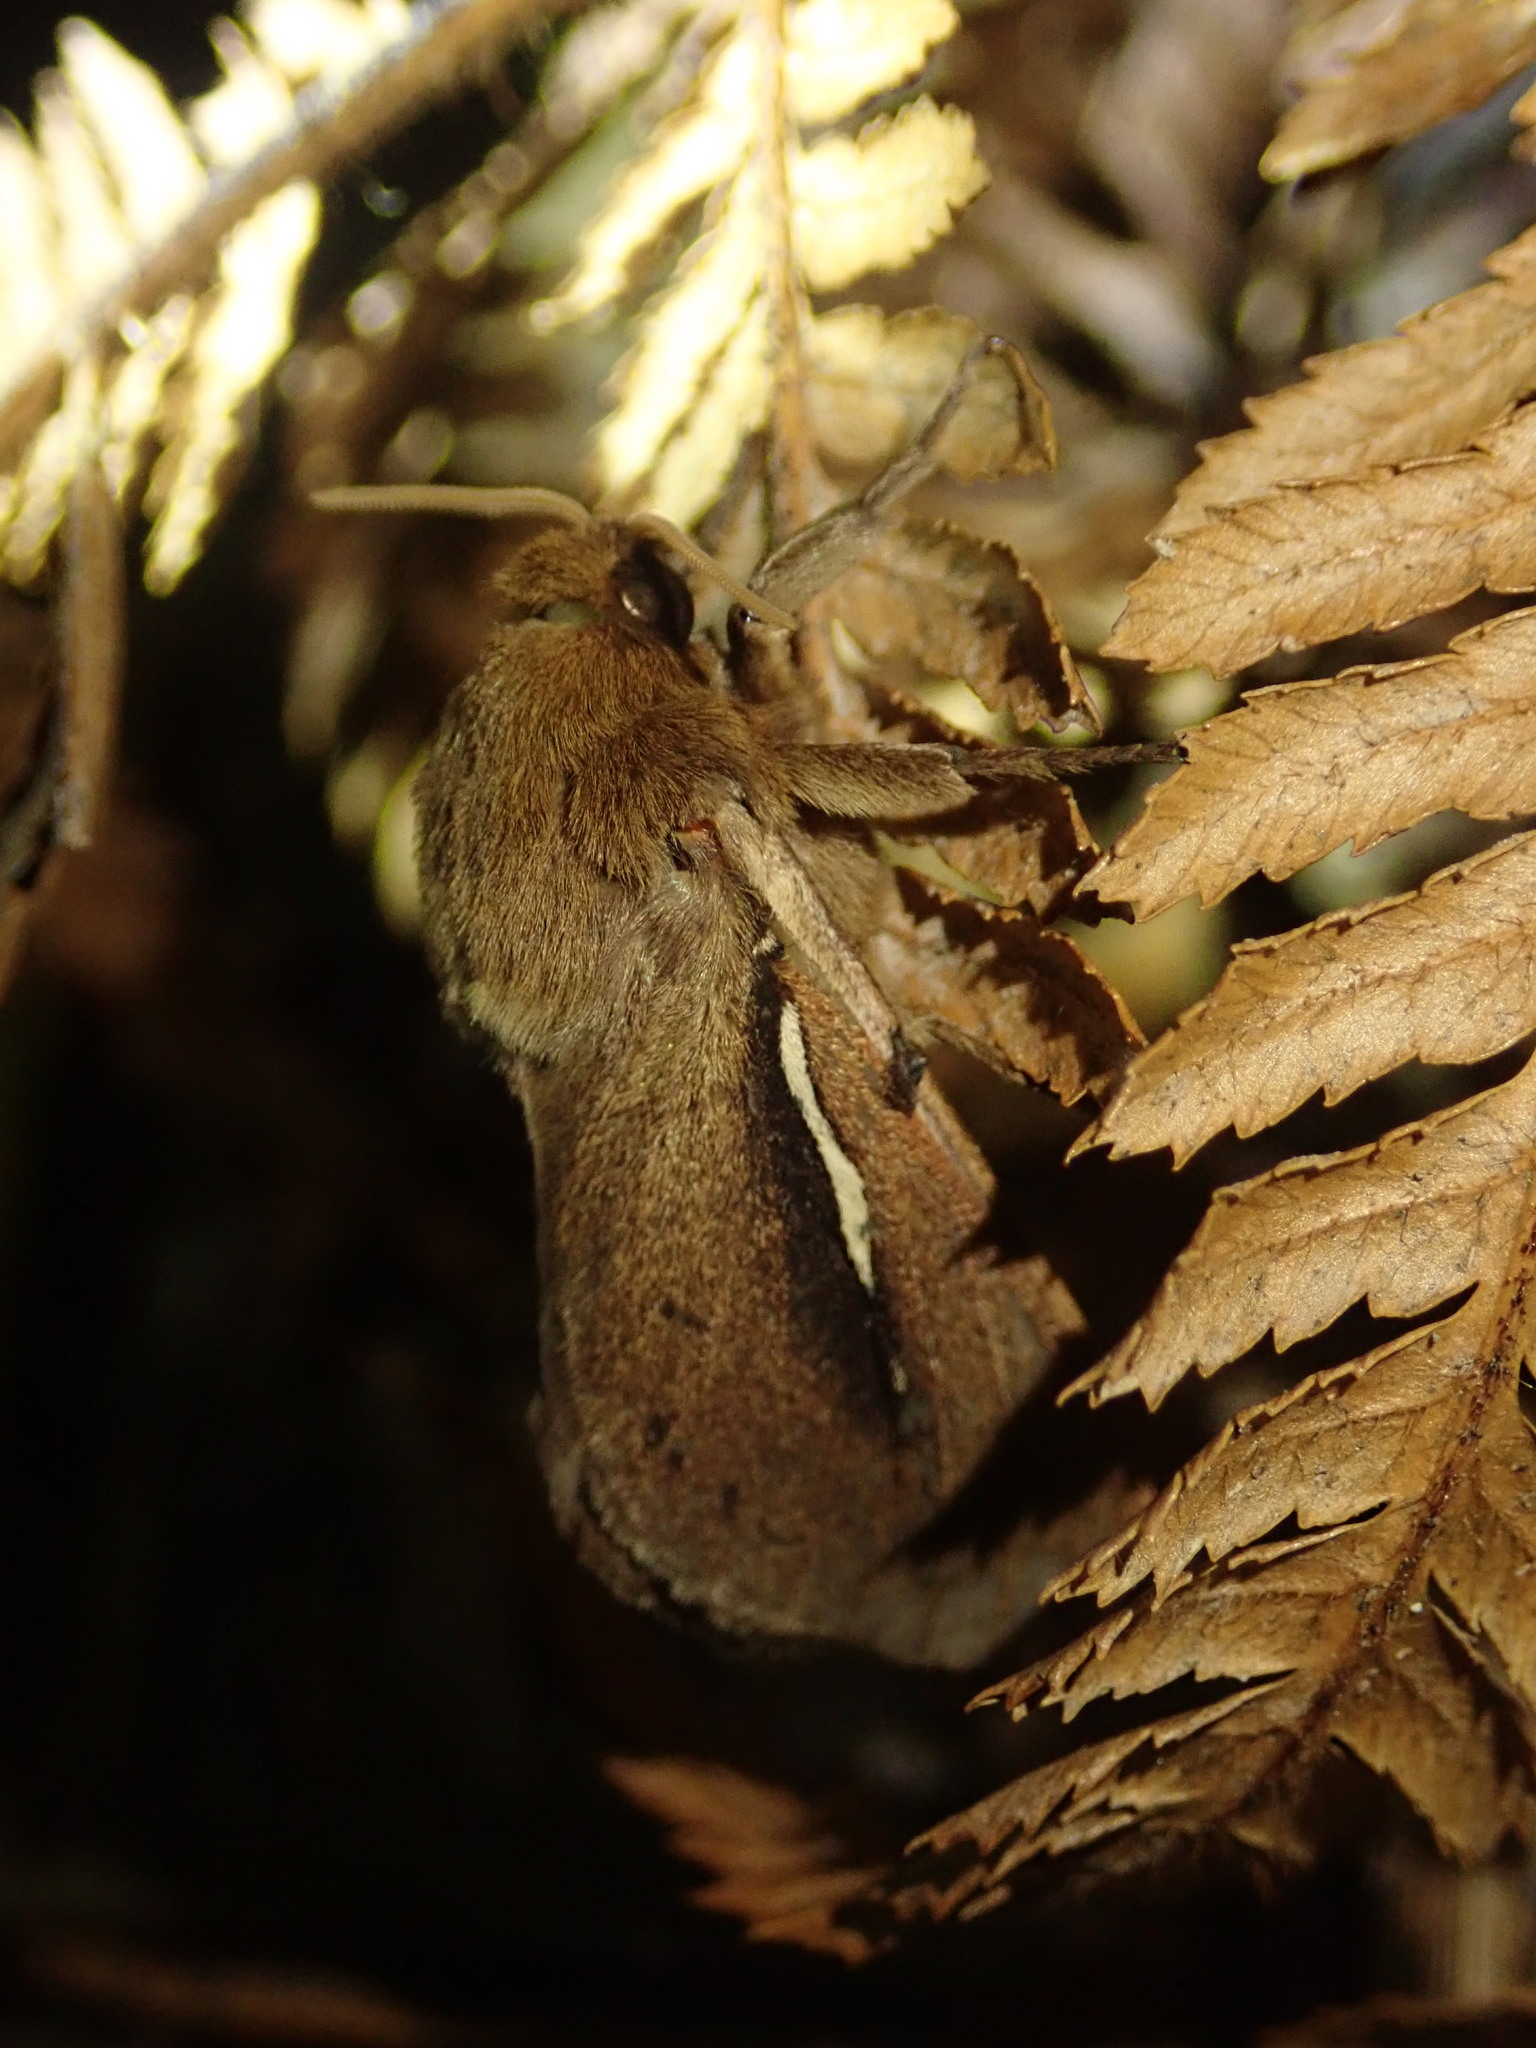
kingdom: Animalia
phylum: Arthropoda
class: Insecta
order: Lepidoptera
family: Hepialidae
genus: Wiseana
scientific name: Wiseana umbraculatus
